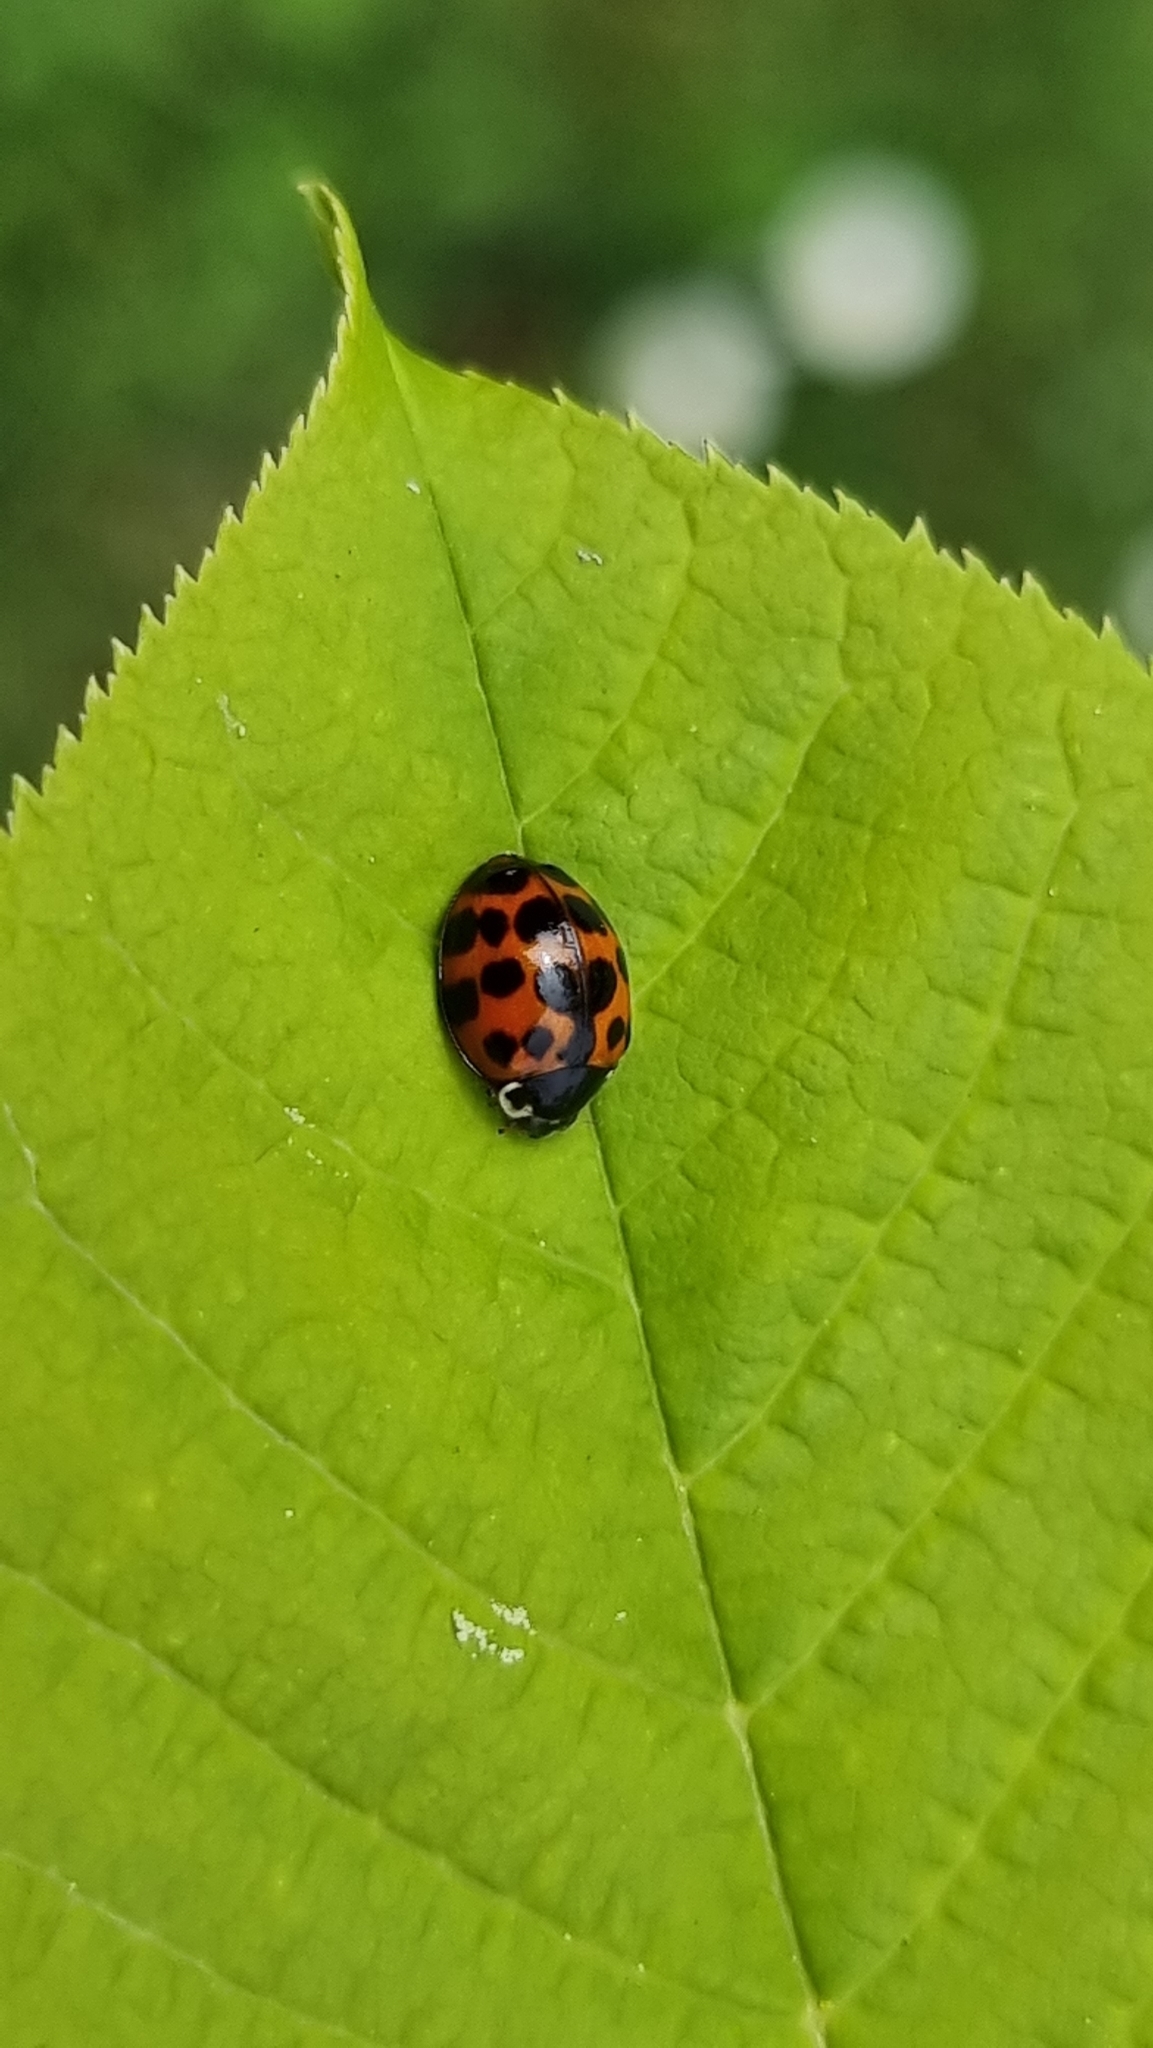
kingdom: Animalia
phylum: Arthropoda
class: Insecta
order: Coleoptera
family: Coccinellidae
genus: Harmonia
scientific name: Harmonia axyridis
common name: Harlequin ladybird
